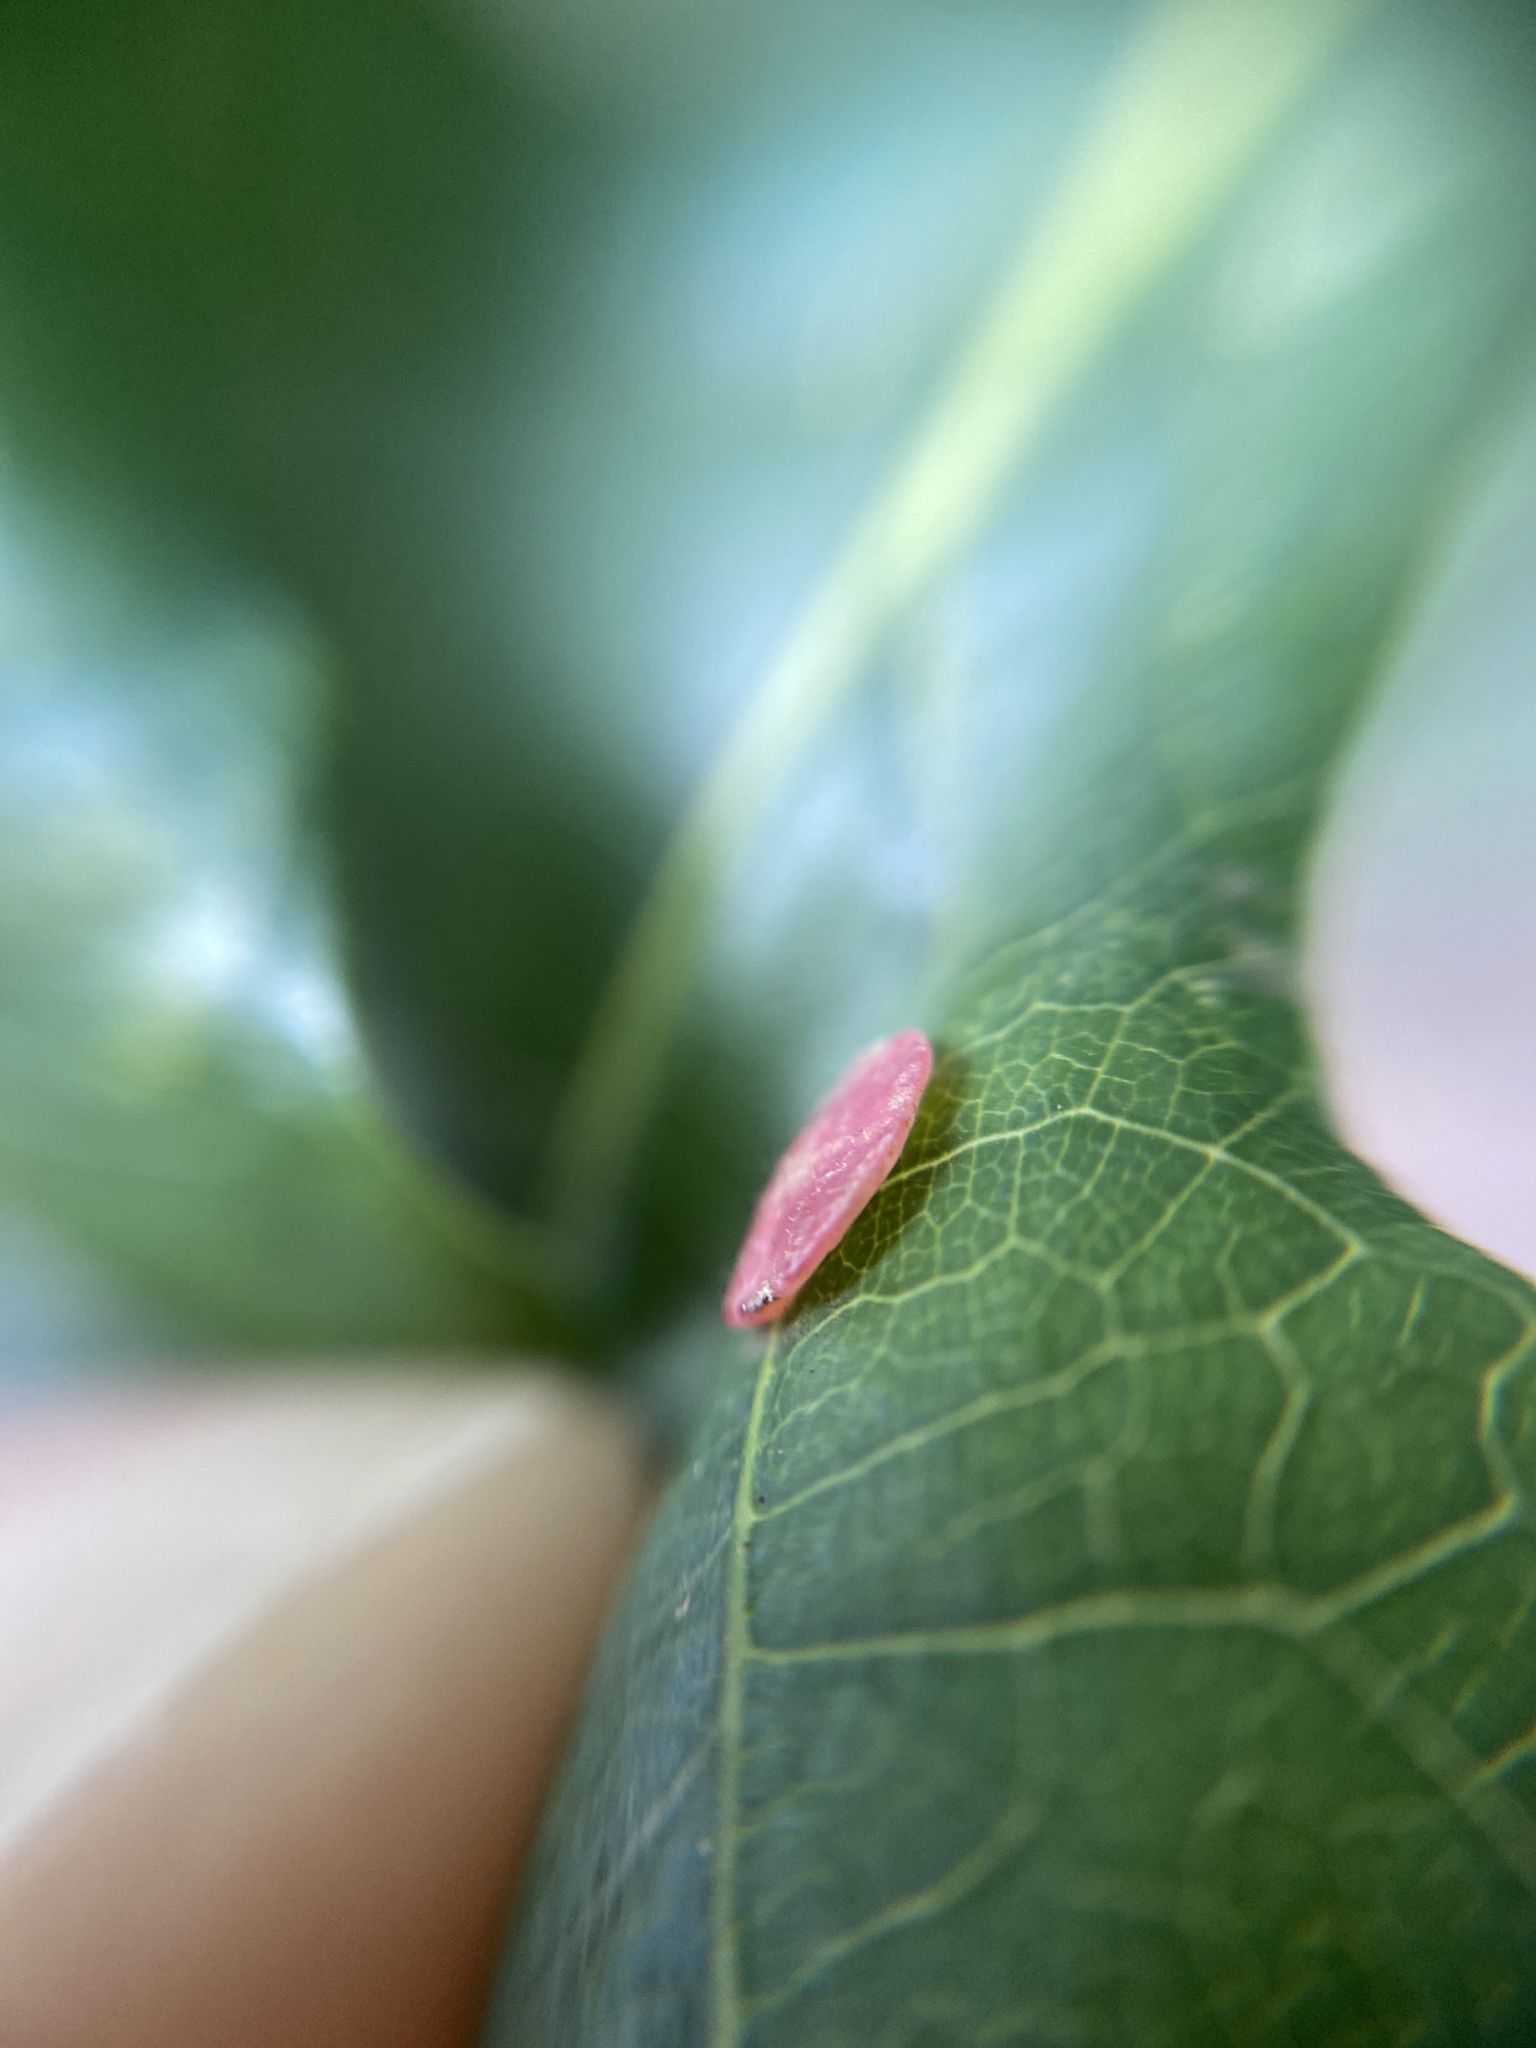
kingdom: Animalia
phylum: Arthropoda
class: Insecta
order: Hymenoptera
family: Cynipidae
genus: Neuroterus
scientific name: Neuroterus albipes
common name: Smooth spangle gall
